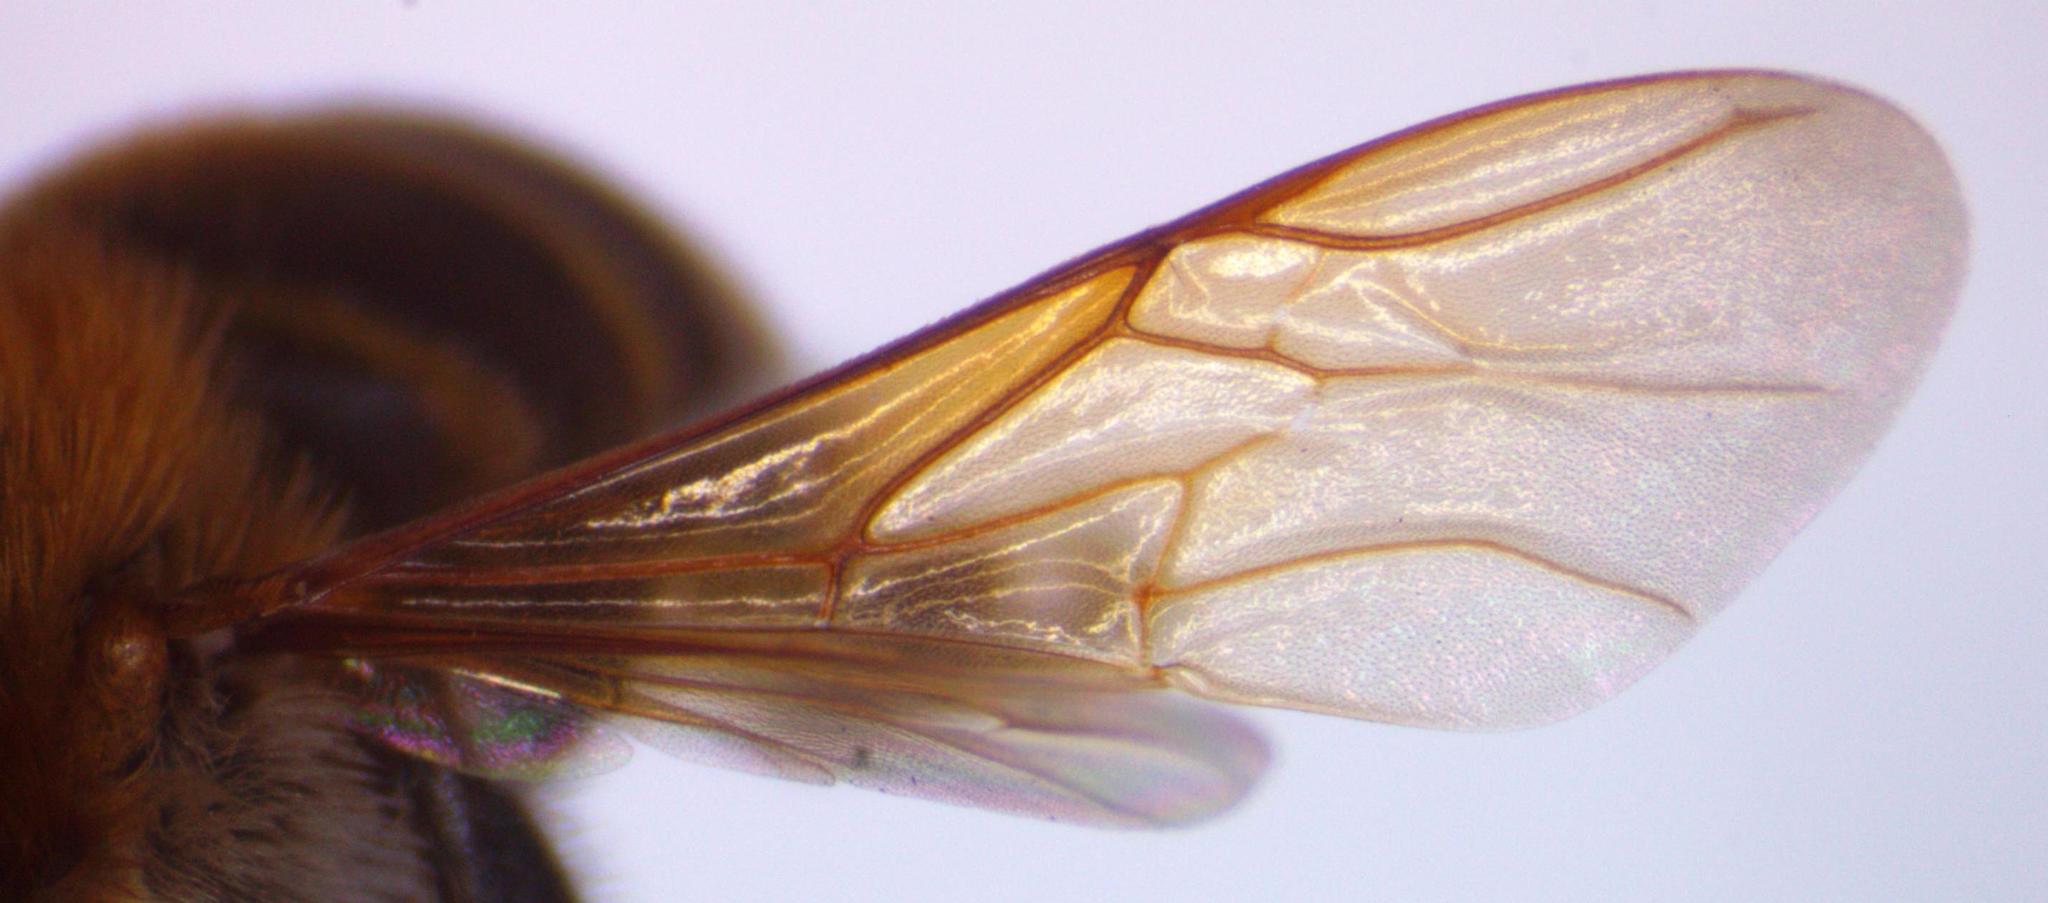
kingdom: Animalia
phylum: Arthropoda
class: Insecta
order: Hymenoptera
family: Apidae
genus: Melipona
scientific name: Melipona beecheii
